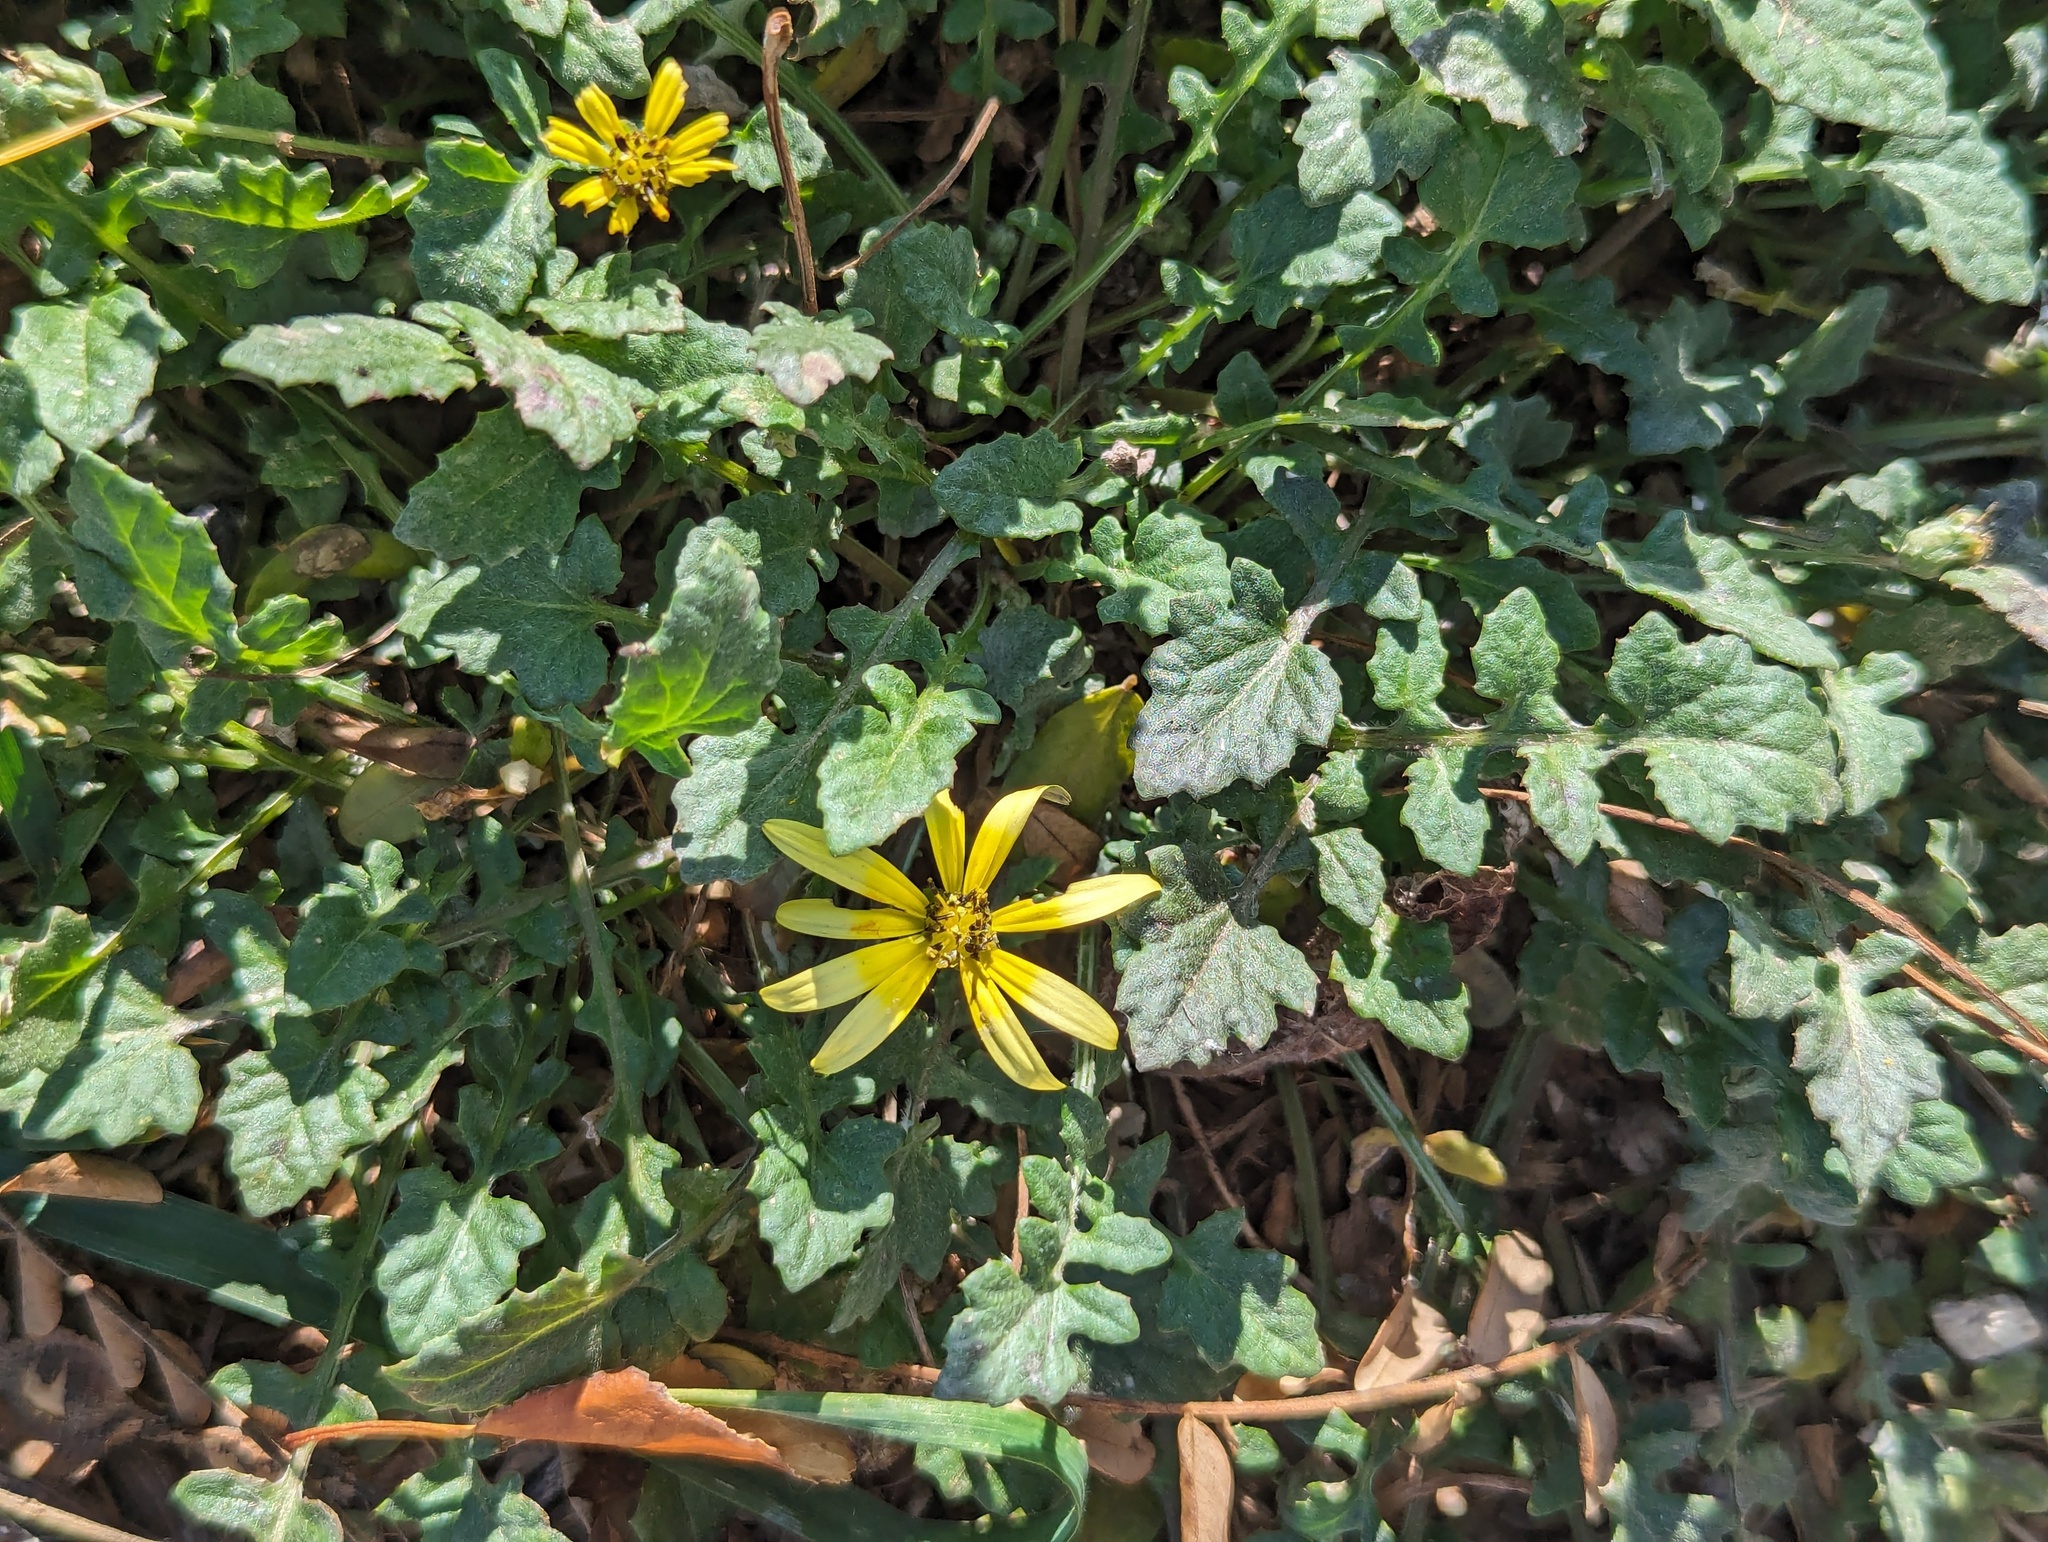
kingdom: Plantae
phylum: Tracheophyta
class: Magnoliopsida
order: Asterales
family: Asteraceae
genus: Arctotheca
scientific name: Arctotheca calendula
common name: Capeweed
